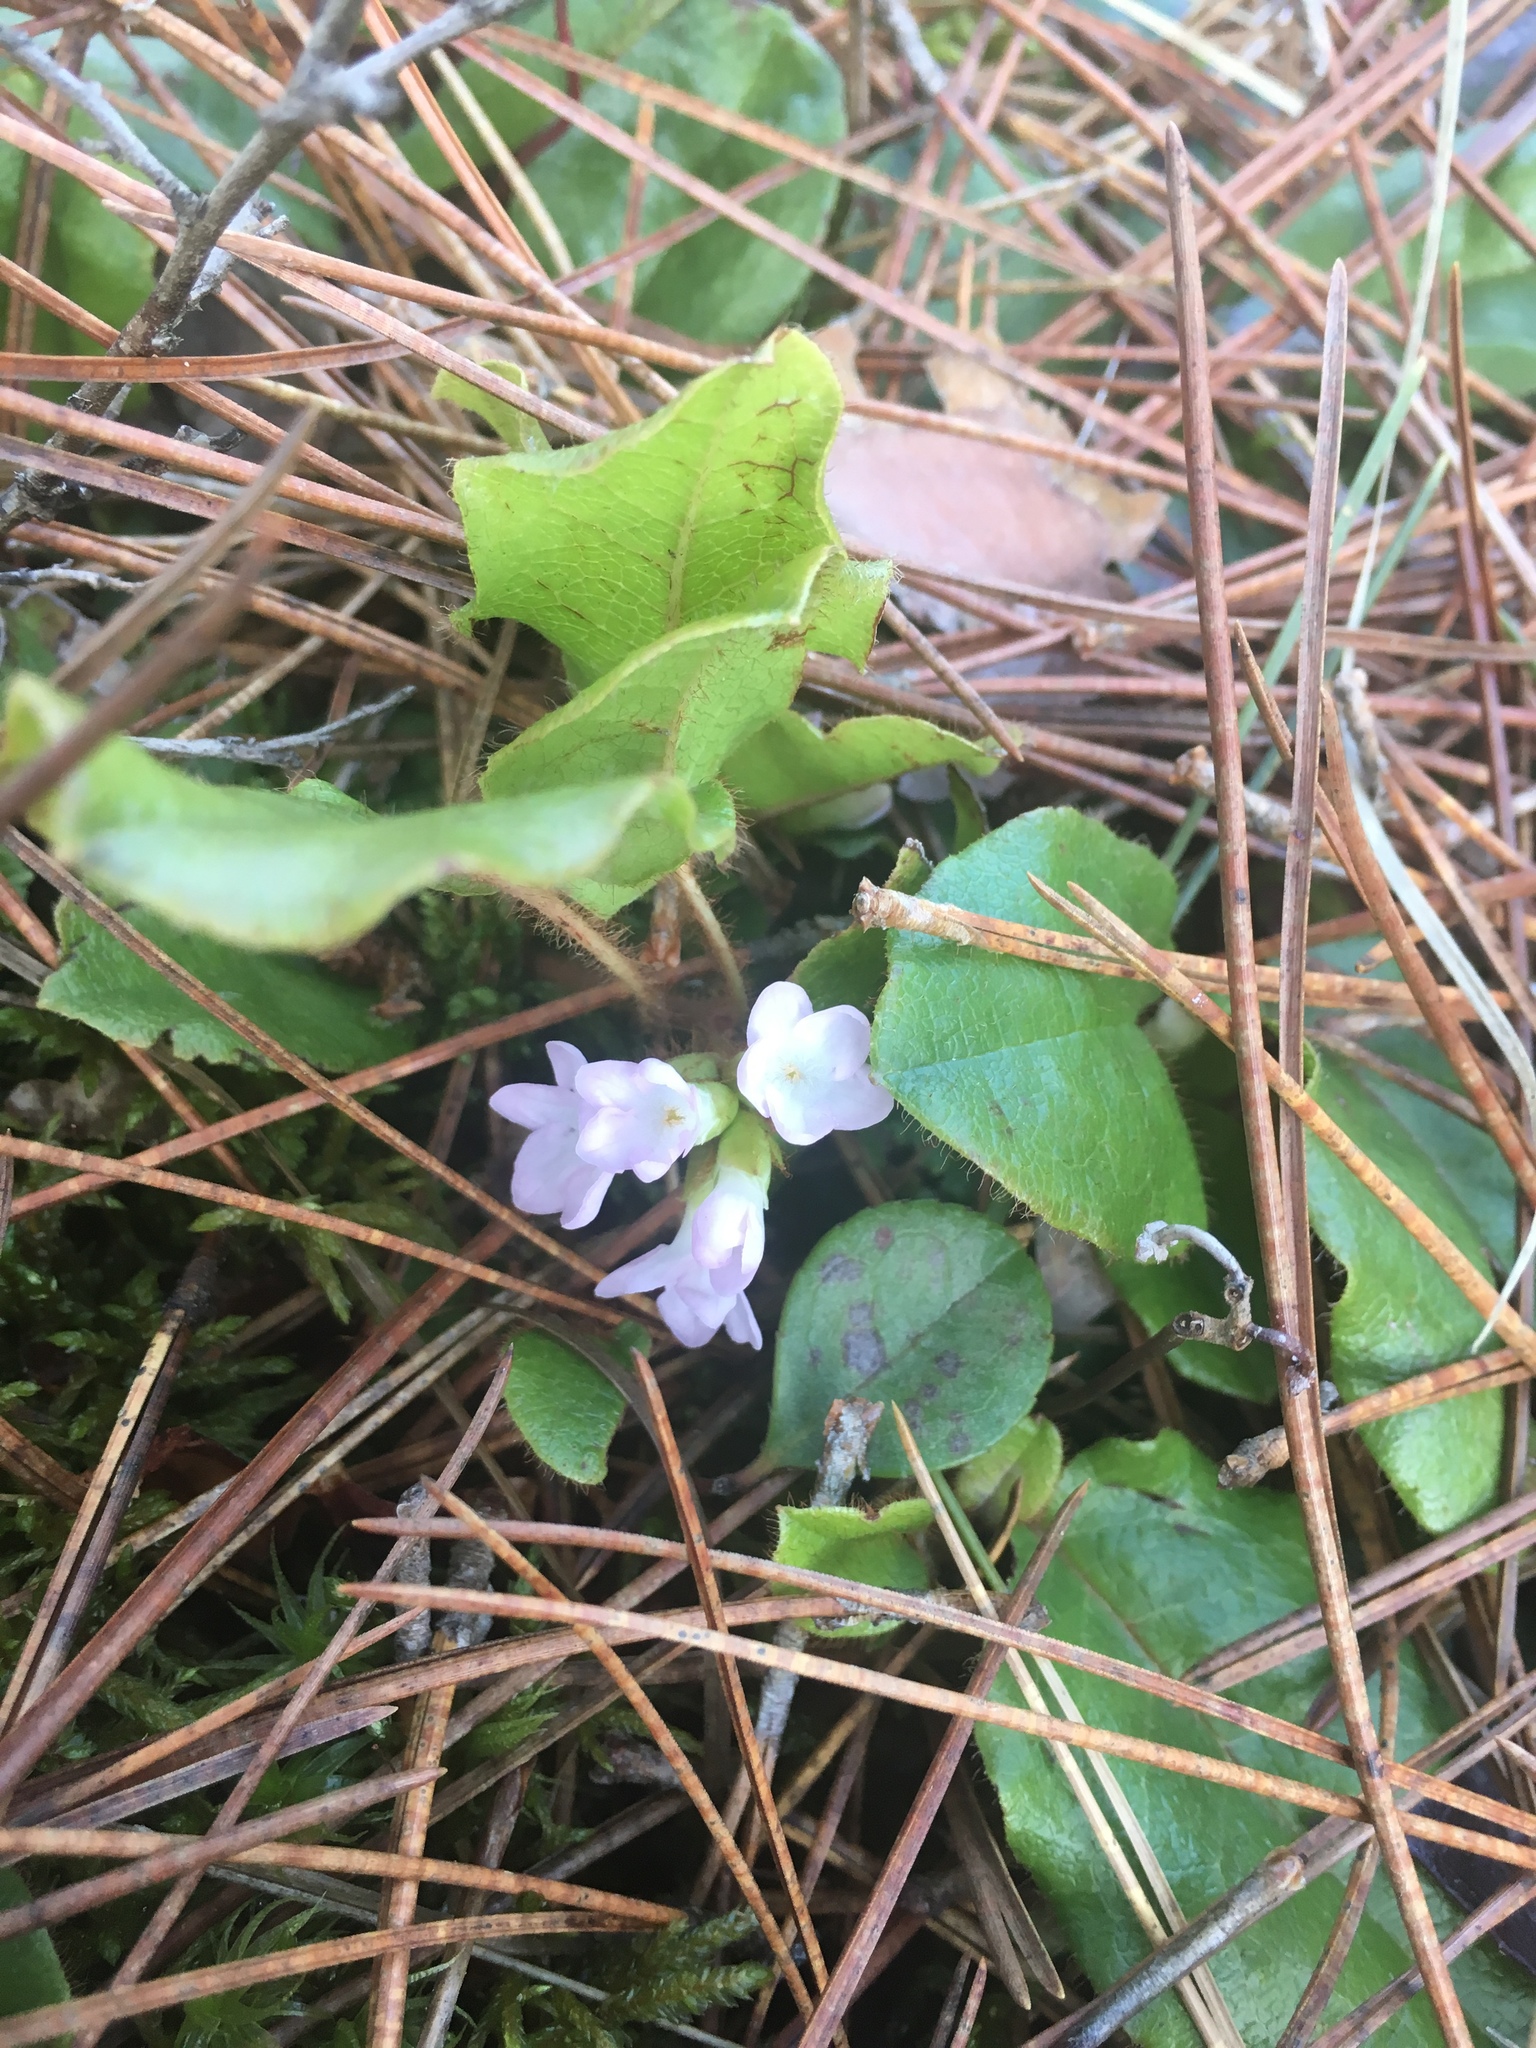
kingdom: Plantae
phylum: Tracheophyta
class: Magnoliopsida
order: Ericales
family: Ericaceae
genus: Epigaea
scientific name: Epigaea repens
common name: Gravelroot
